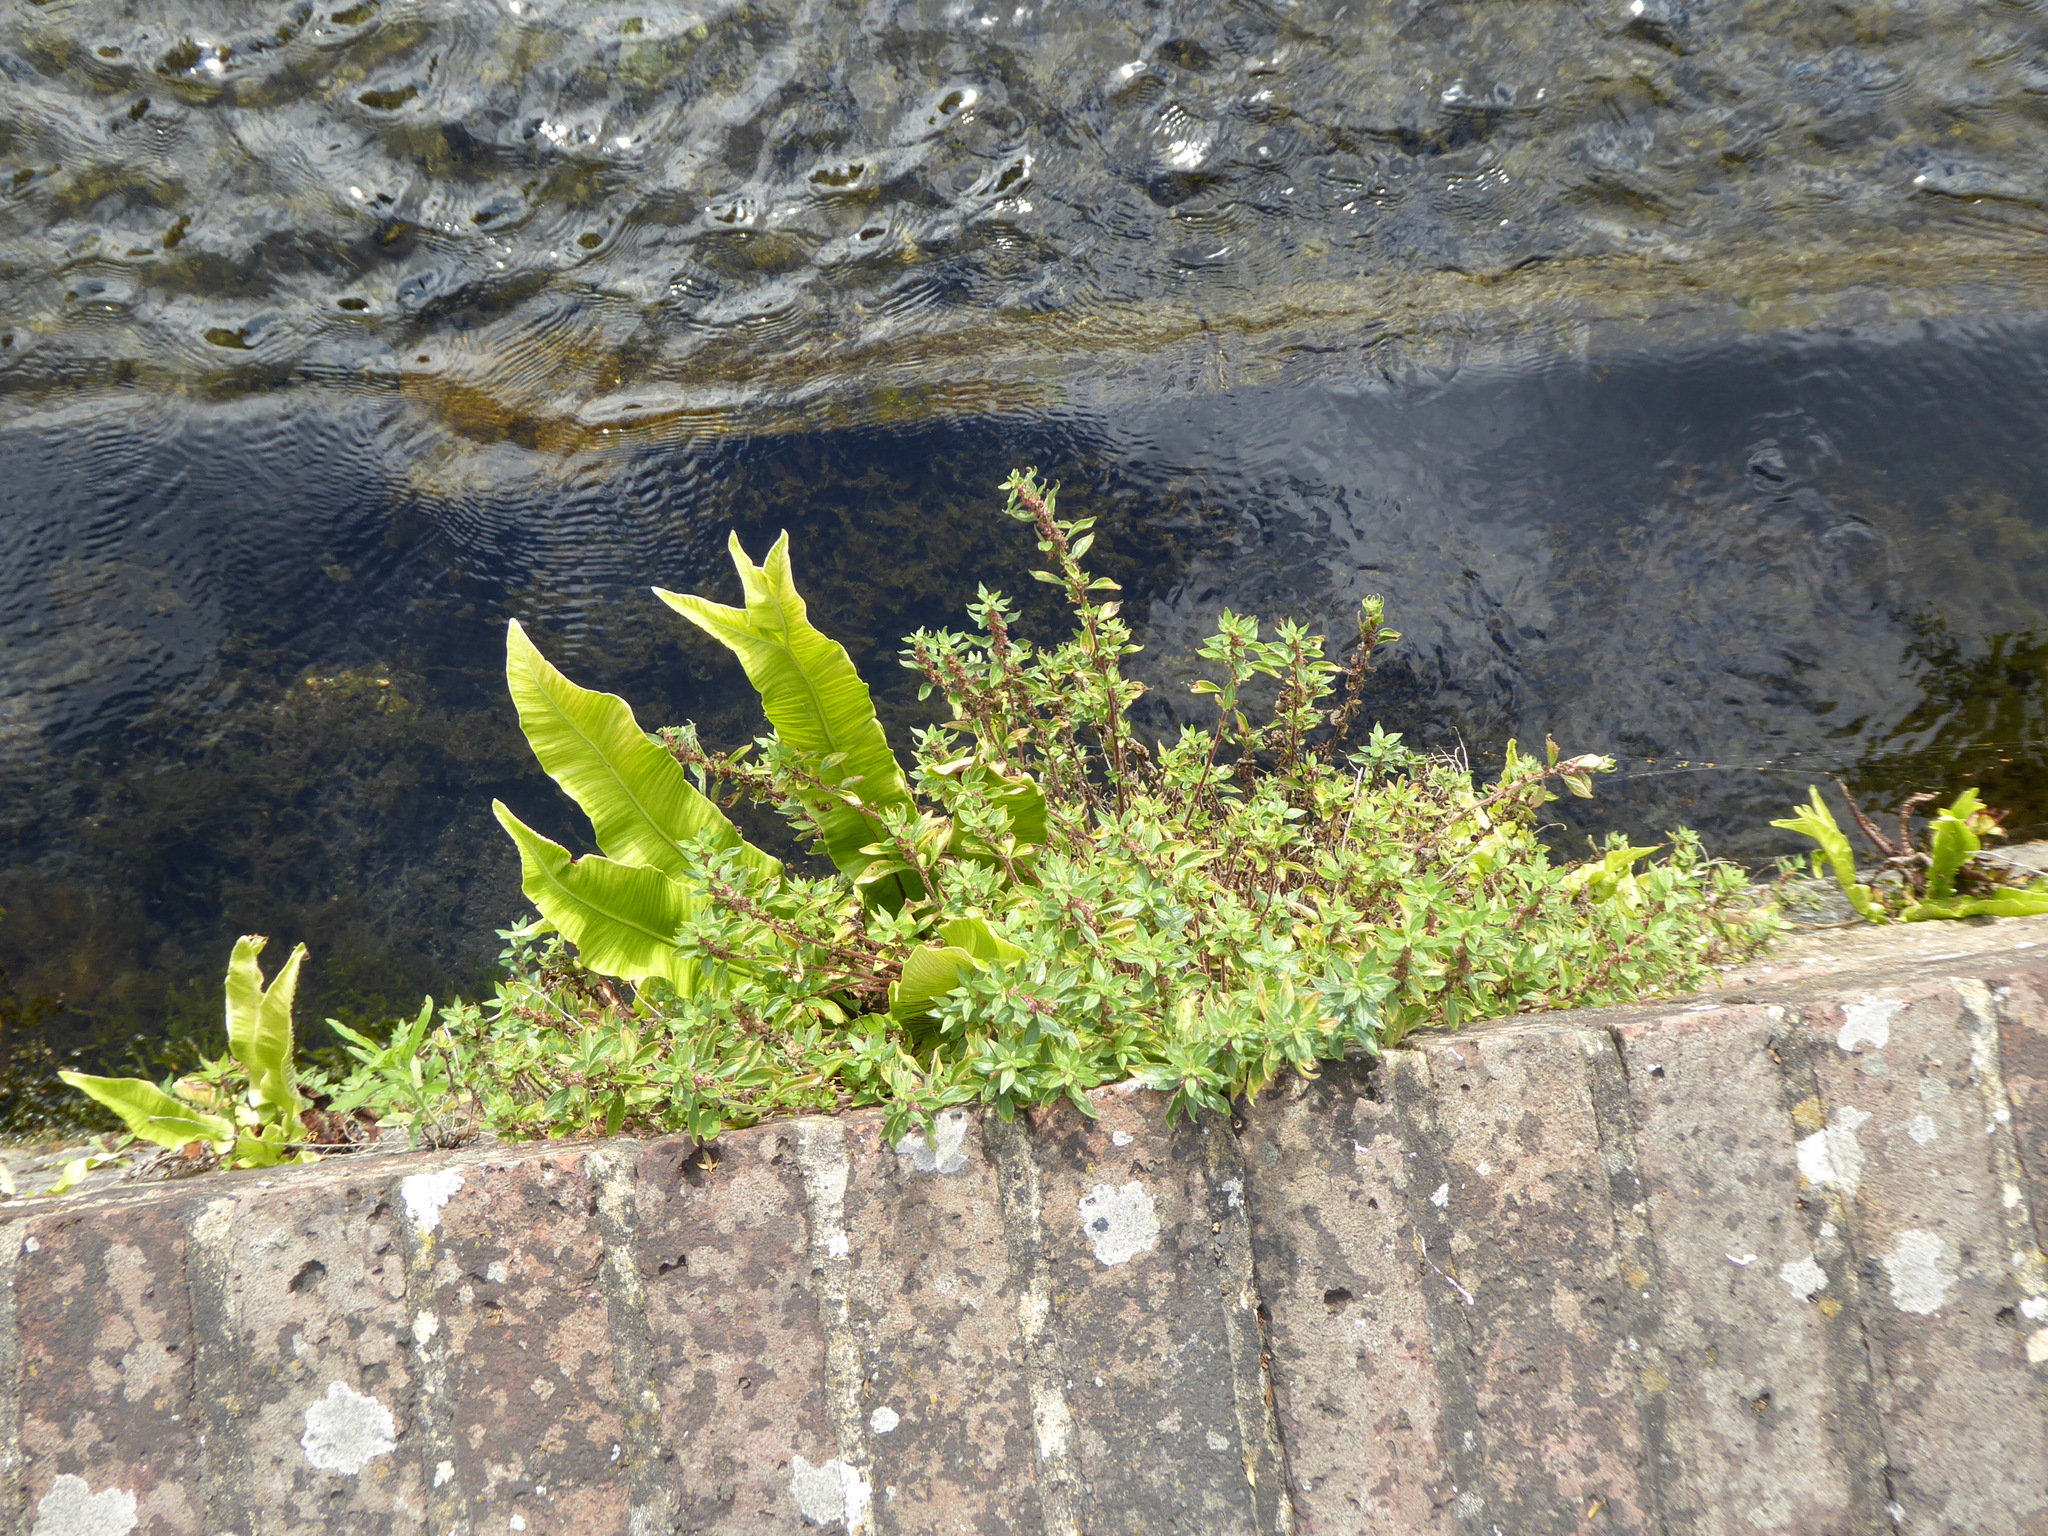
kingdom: Plantae
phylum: Tracheophyta
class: Polypodiopsida
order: Polypodiales
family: Aspleniaceae
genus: Asplenium
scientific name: Asplenium scolopendrium
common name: Hart's-tongue fern
